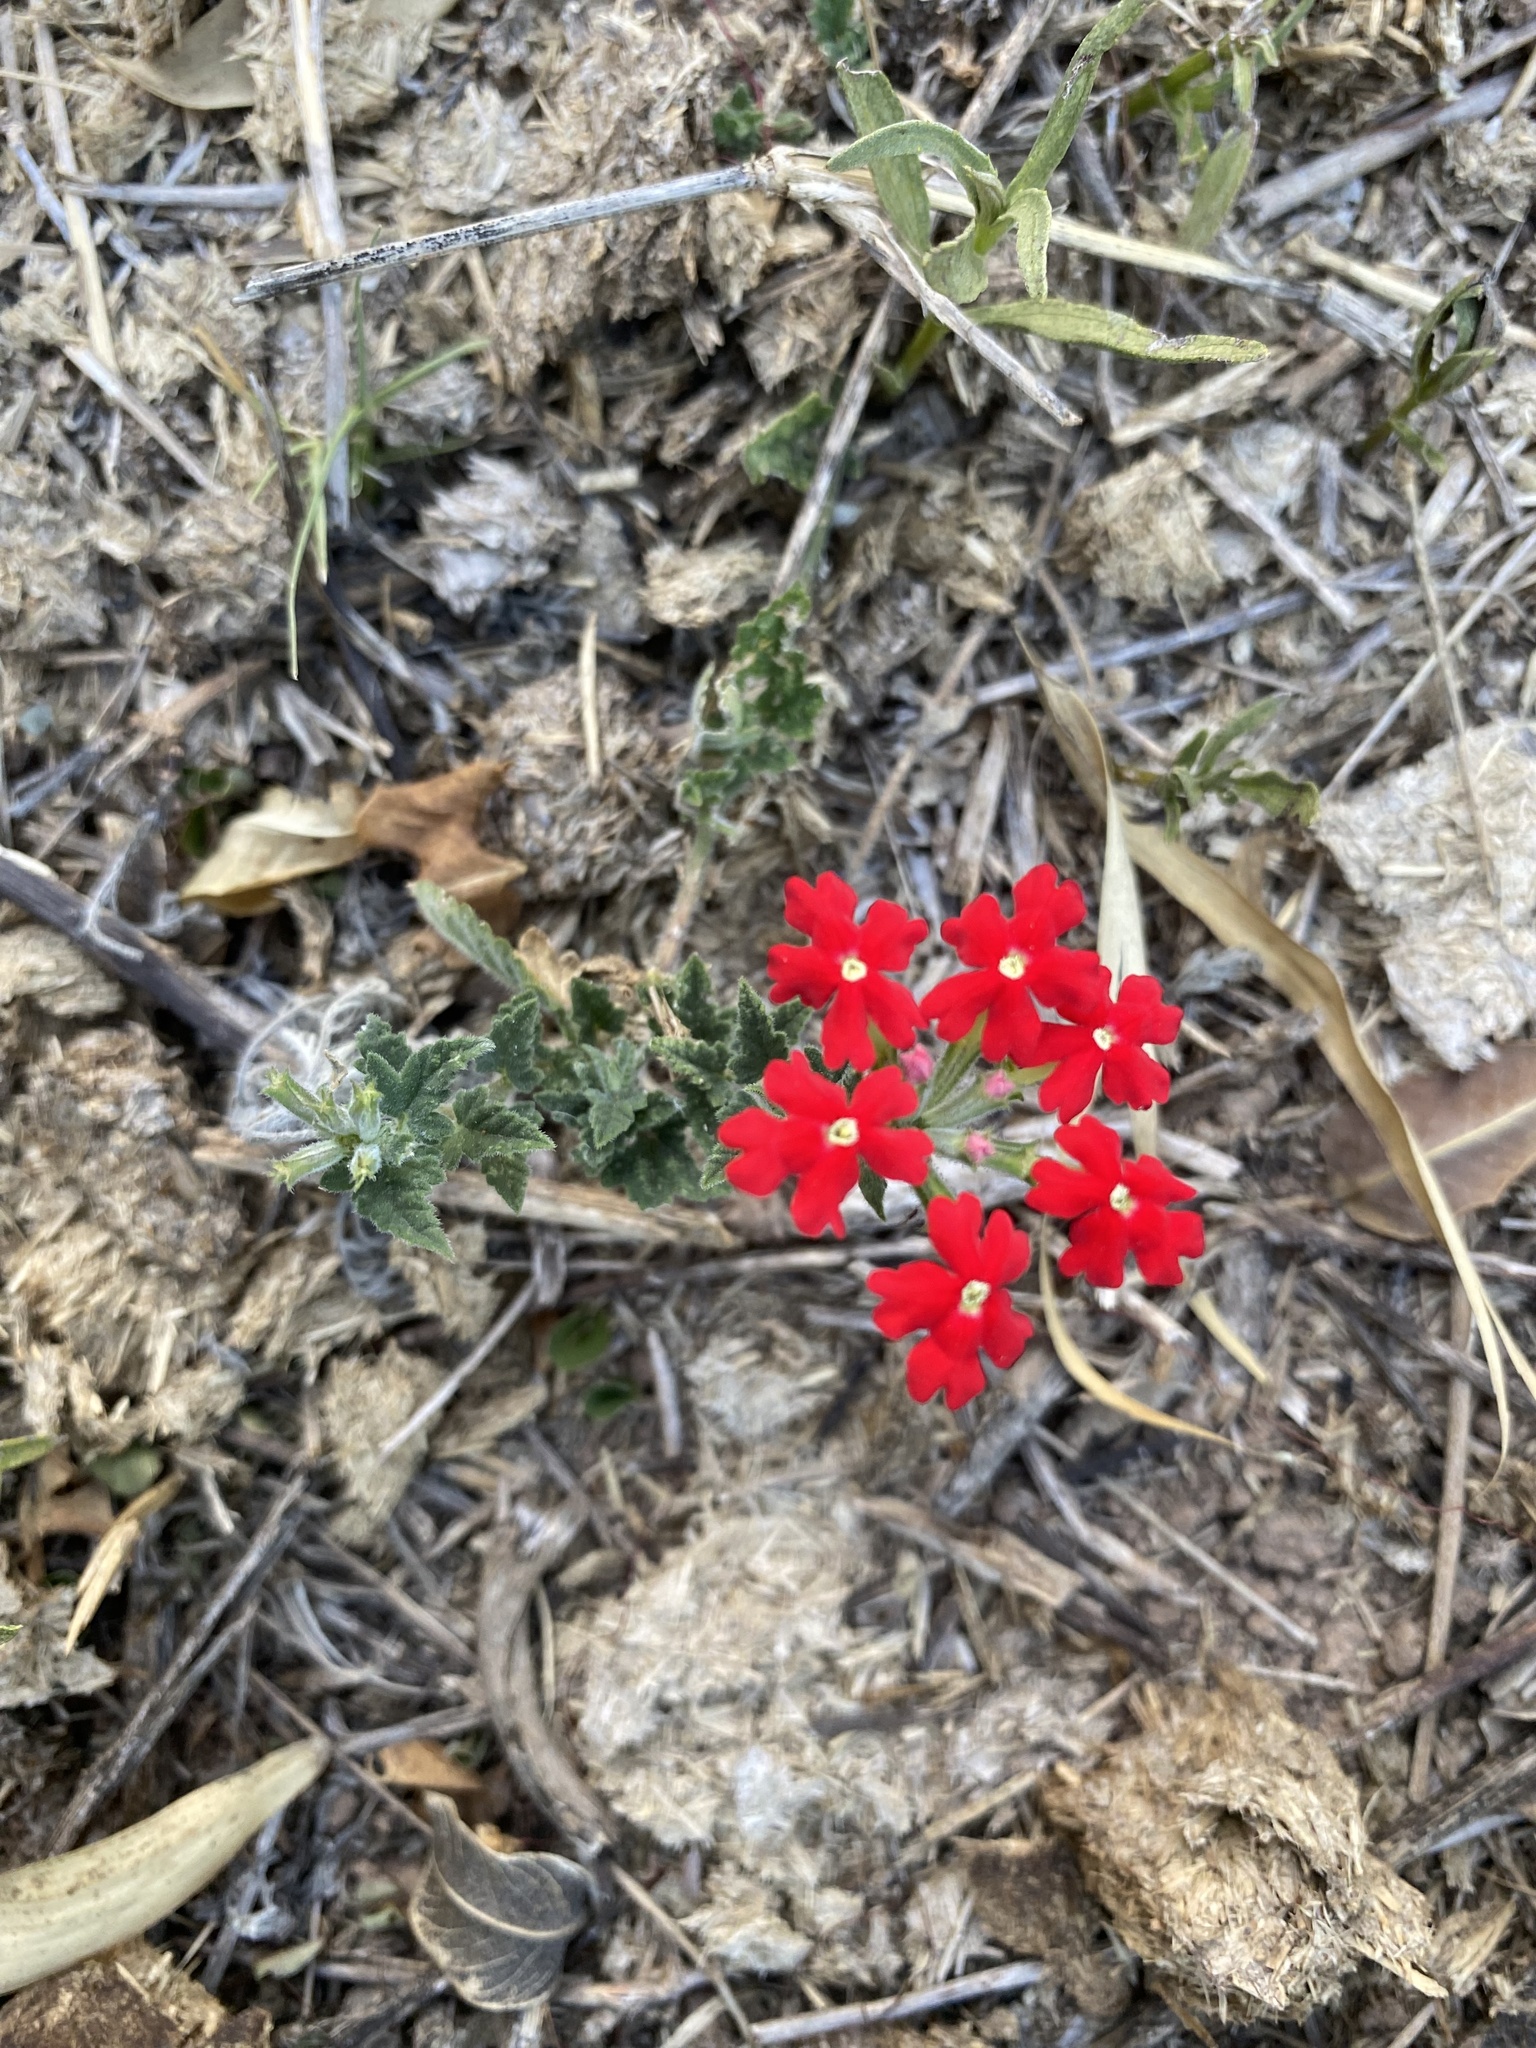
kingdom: Plantae
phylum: Tracheophyta
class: Magnoliopsida
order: Lamiales
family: Verbenaceae
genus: Verbena
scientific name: Verbena tweedieana
